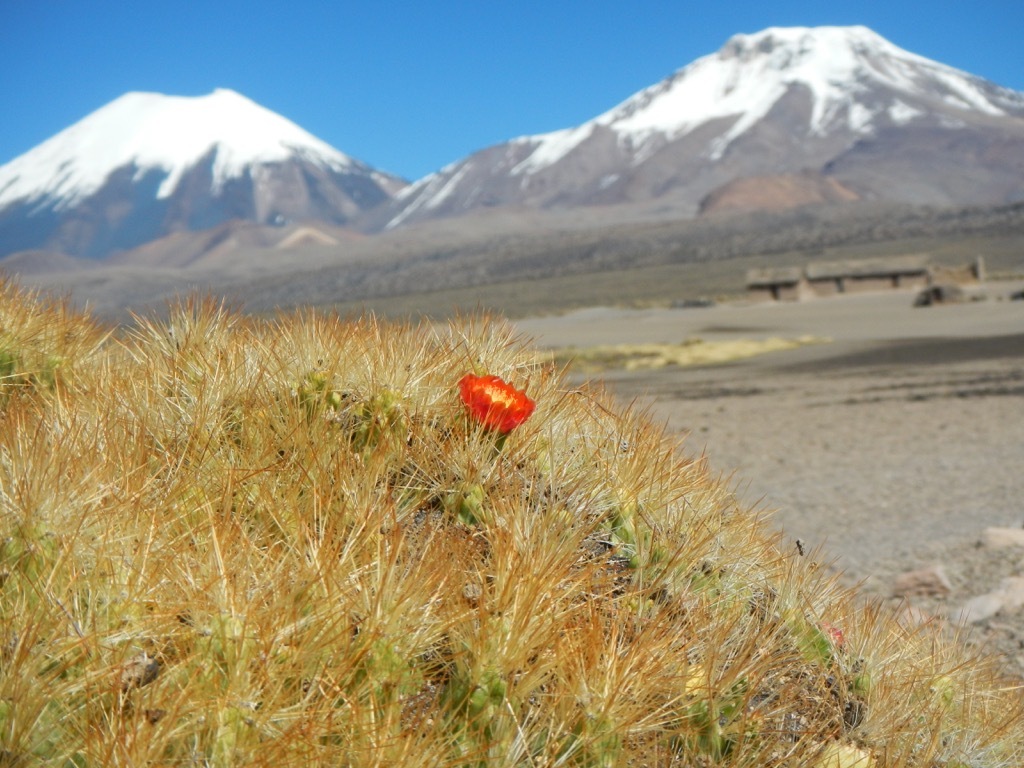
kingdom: Plantae
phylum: Tracheophyta
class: Magnoliopsida
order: Caryophyllales
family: Cactaceae
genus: Cumulopuntia
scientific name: Cumulopuntia glomerata
